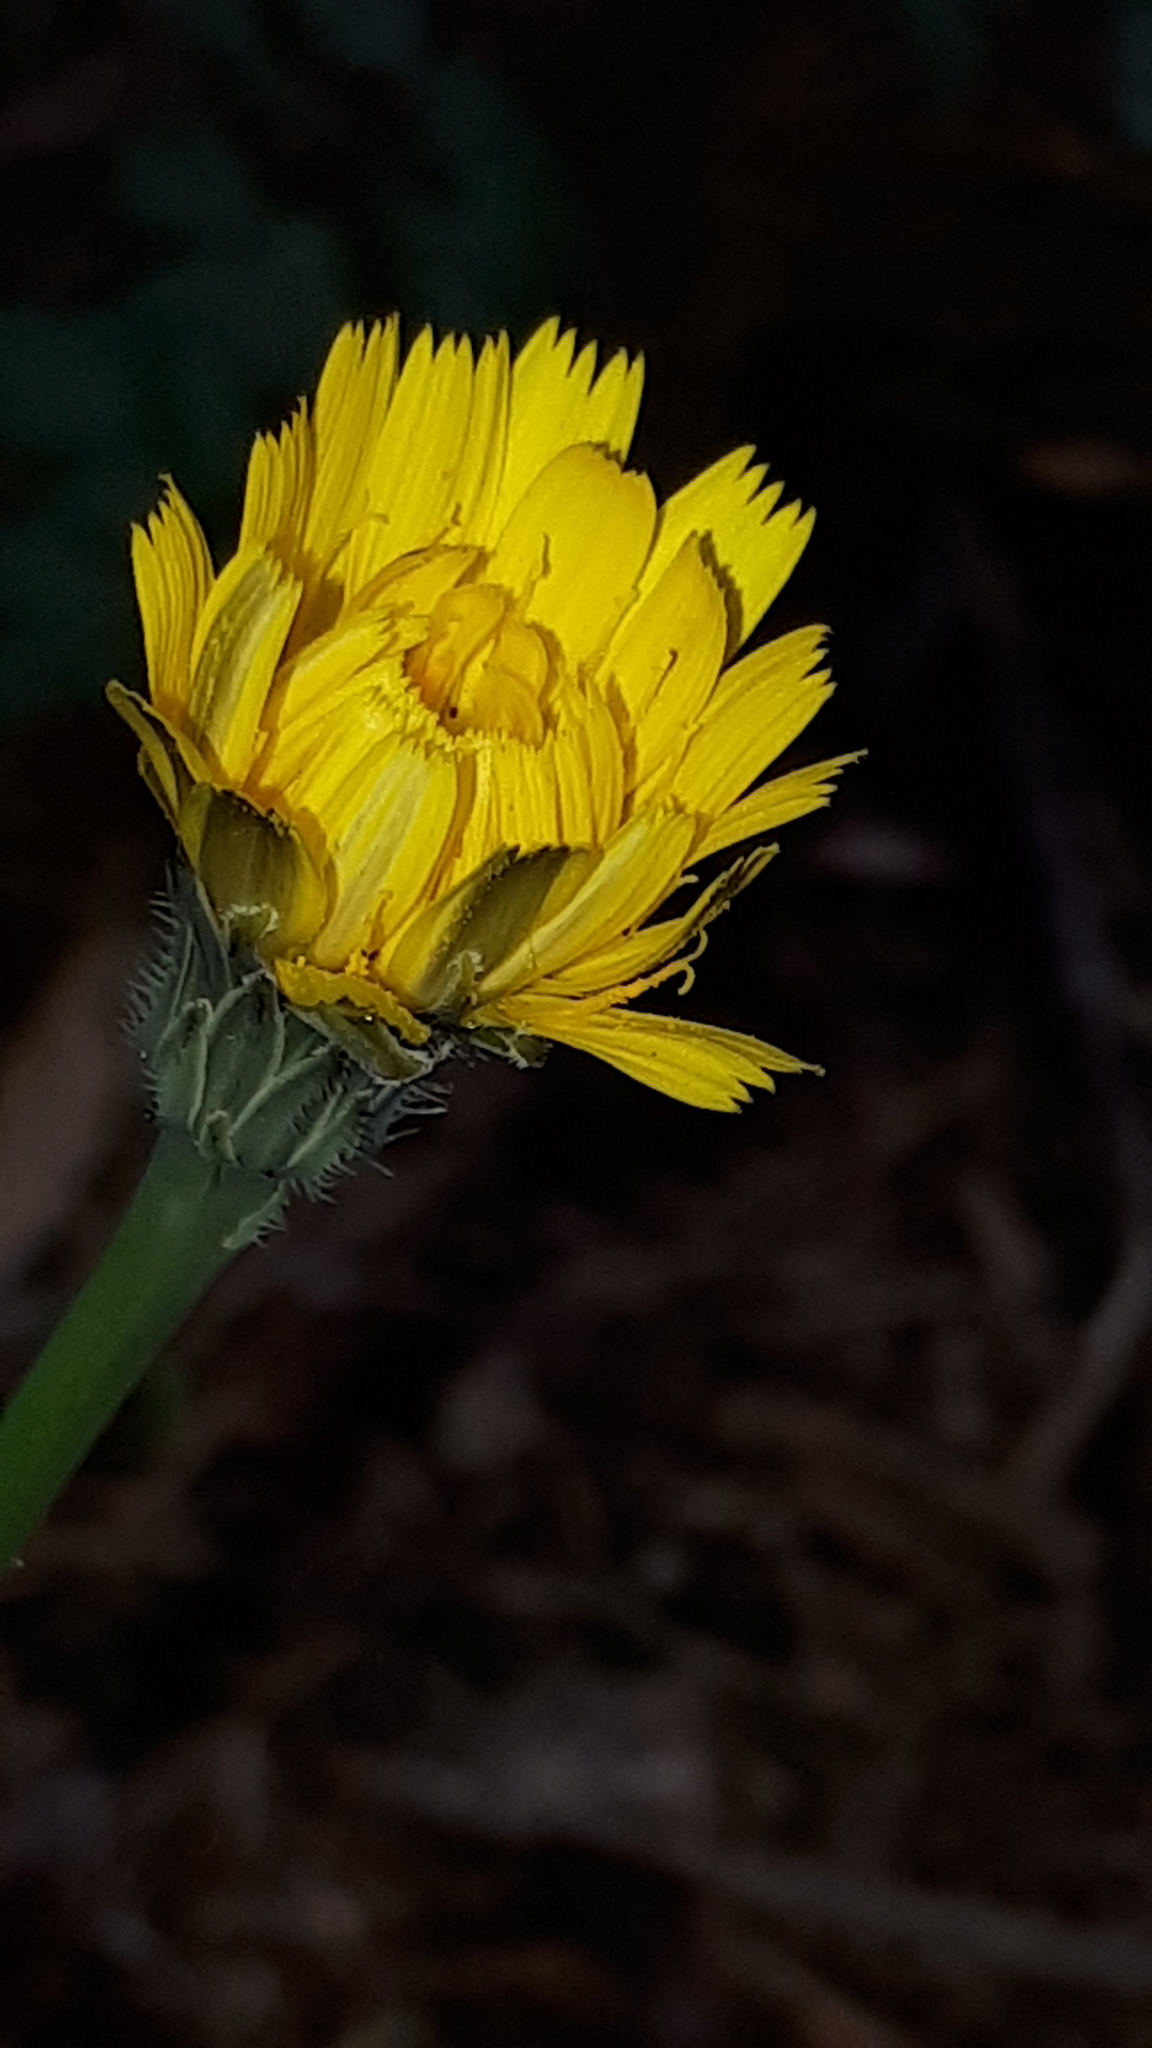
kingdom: Plantae
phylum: Tracheophyta
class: Magnoliopsida
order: Asterales
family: Asteraceae
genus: Hypochaeris
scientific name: Hypochaeris radicata
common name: Flatweed
